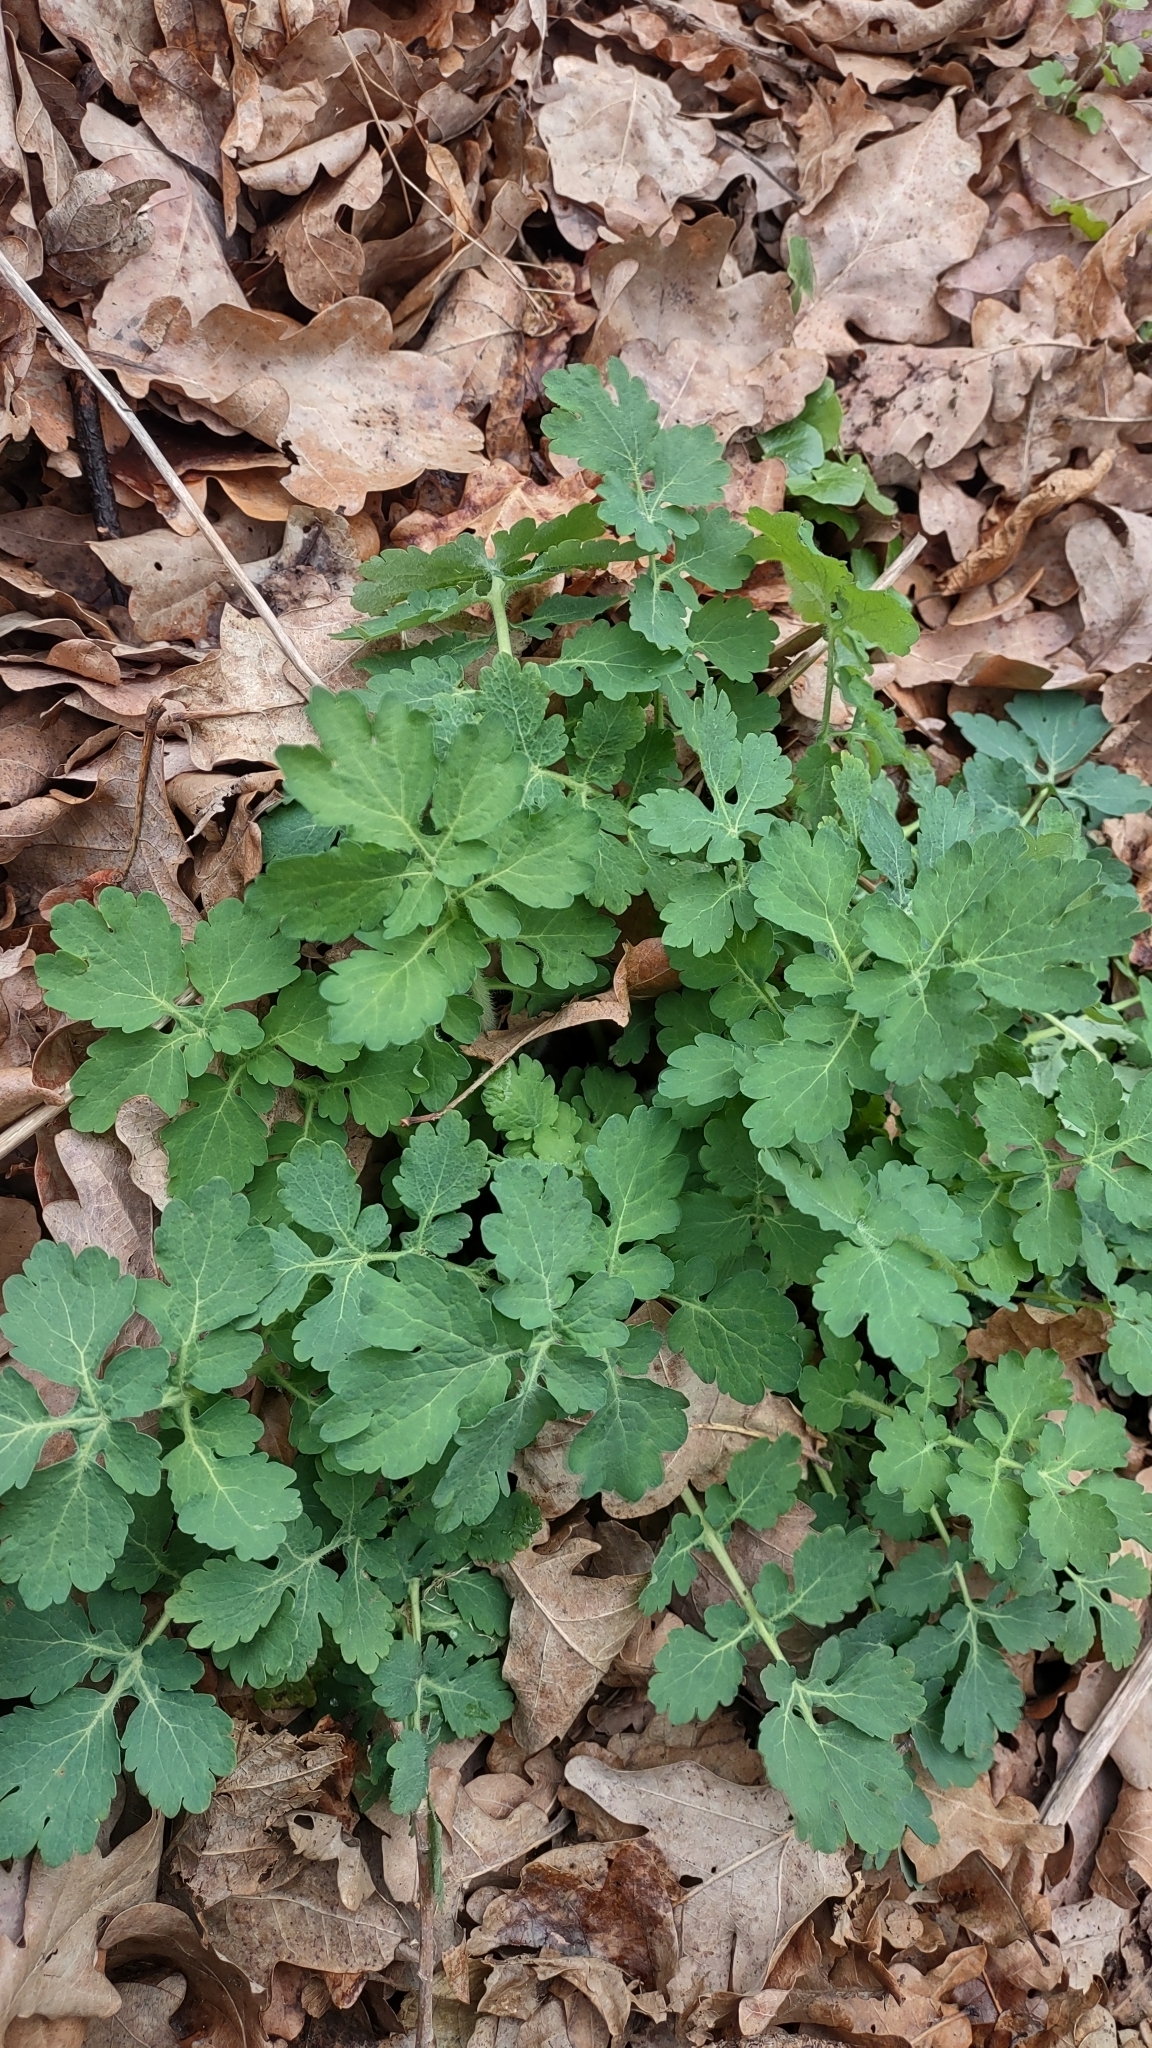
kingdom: Plantae
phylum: Tracheophyta
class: Magnoliopsida
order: Ranunculales
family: Papaveraceae
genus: Chelidonium
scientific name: Chelidonium majus
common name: Greater celandine
